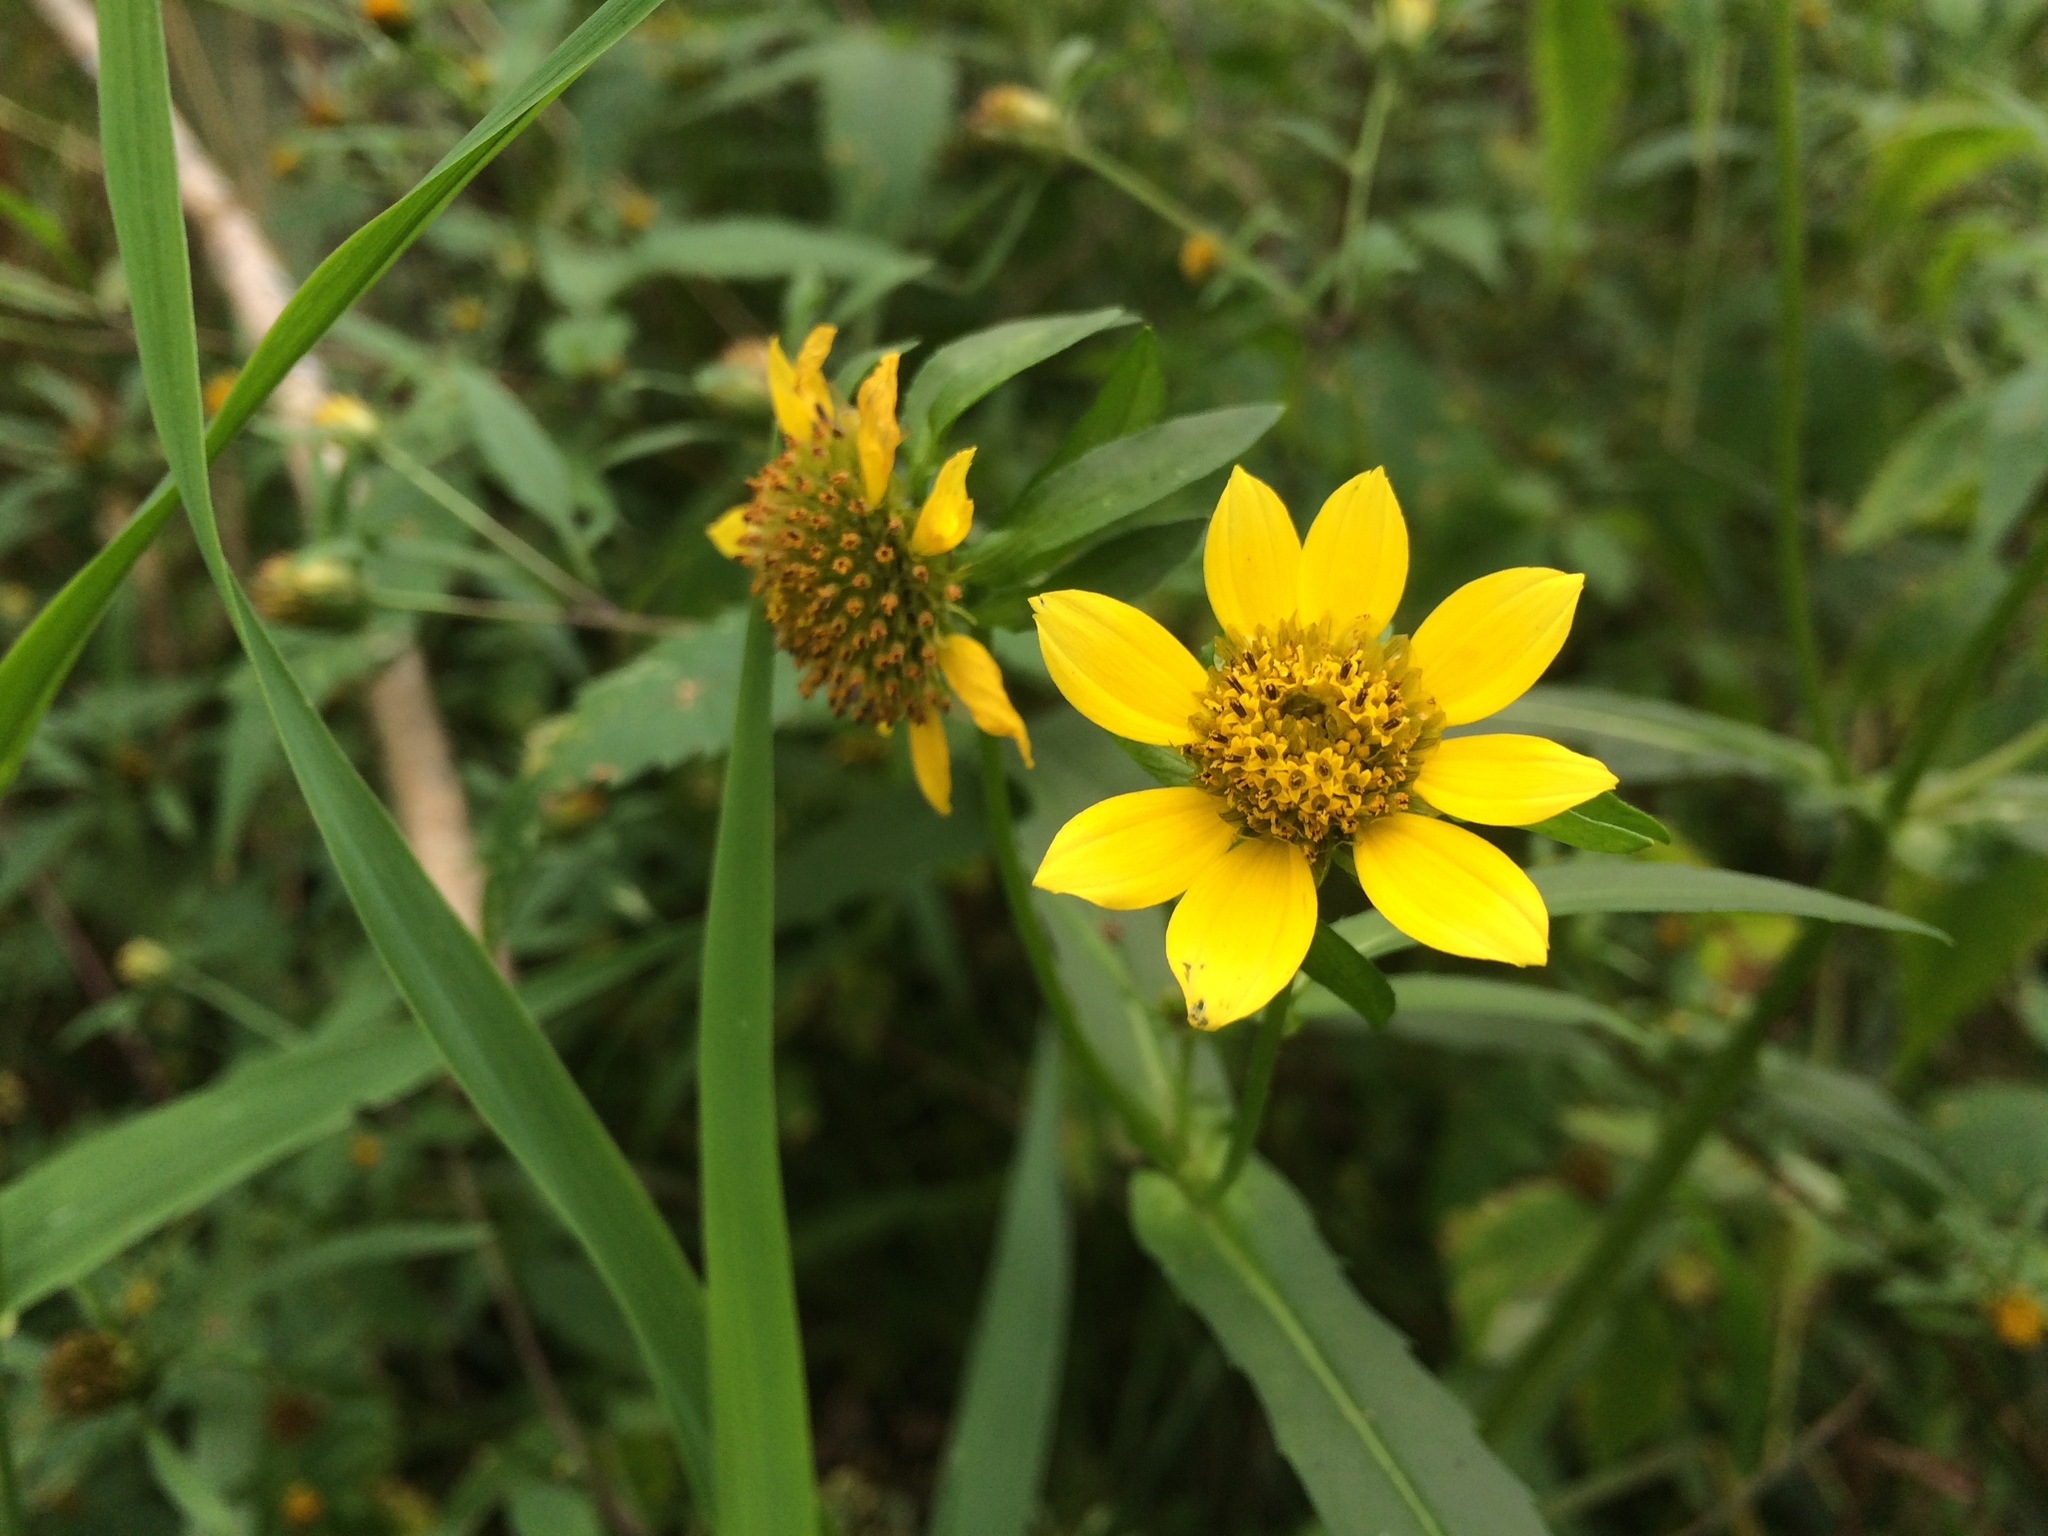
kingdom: Plantae
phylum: Tracheophyta
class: Magnoliopsida
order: Asterales
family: Asteraceae
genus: Bidens
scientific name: Bidens cernua
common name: Nodding bur-marigold
